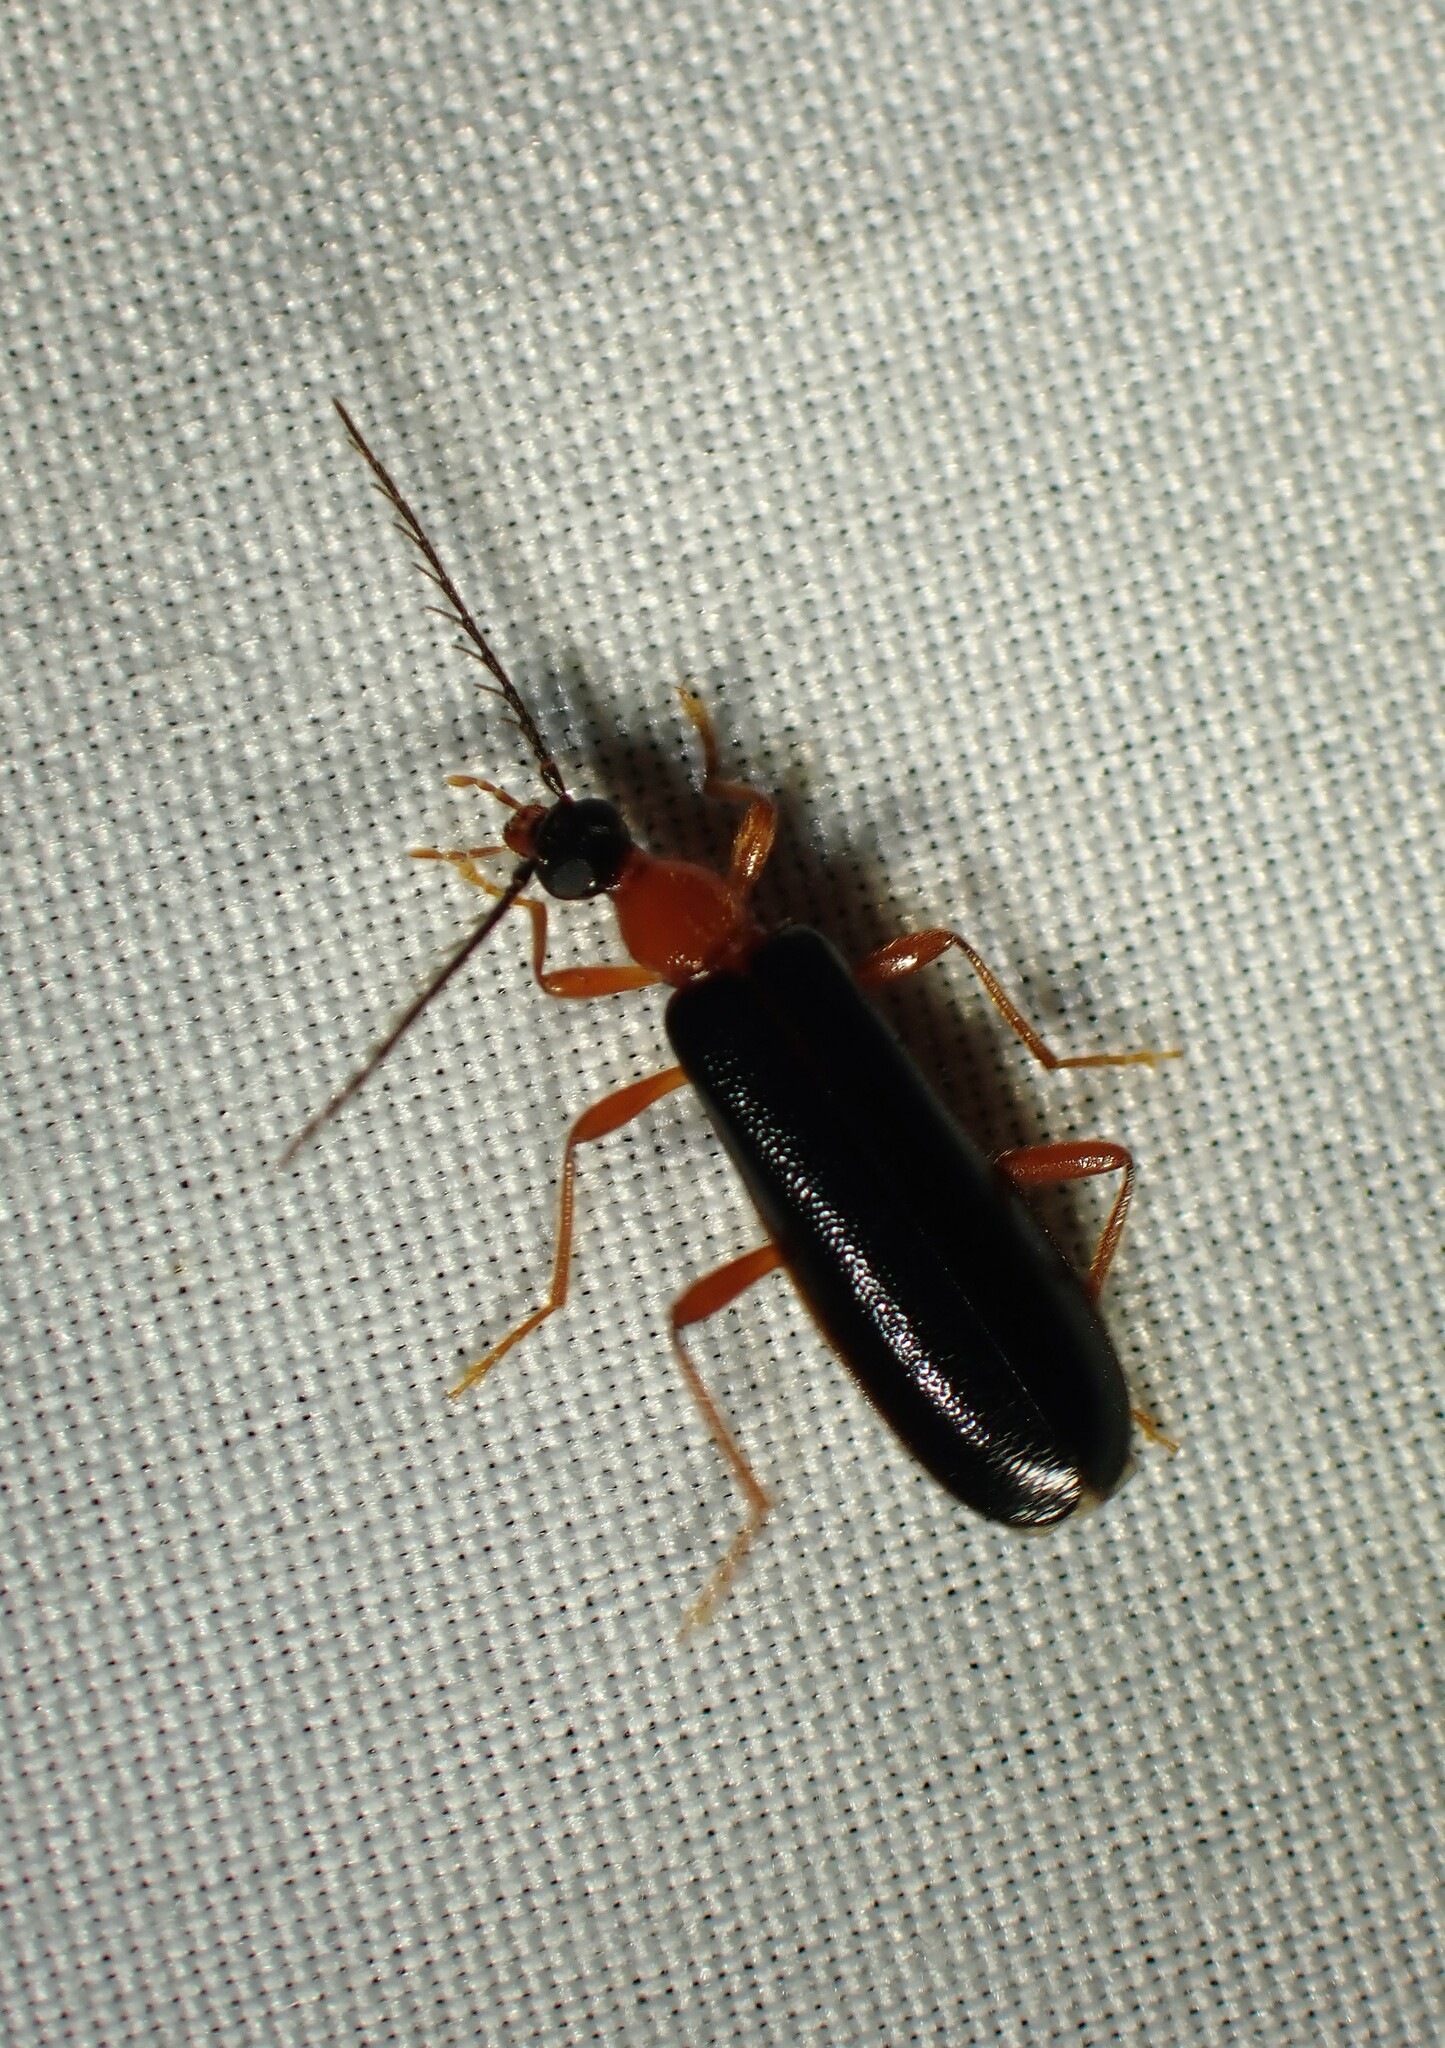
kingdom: Animalia
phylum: Arthropoda
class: Insecta
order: Coleoptera
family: Pyrochroidae
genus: Dendroides
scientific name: Dendroides canadensis
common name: Canada fire-colored beetle
